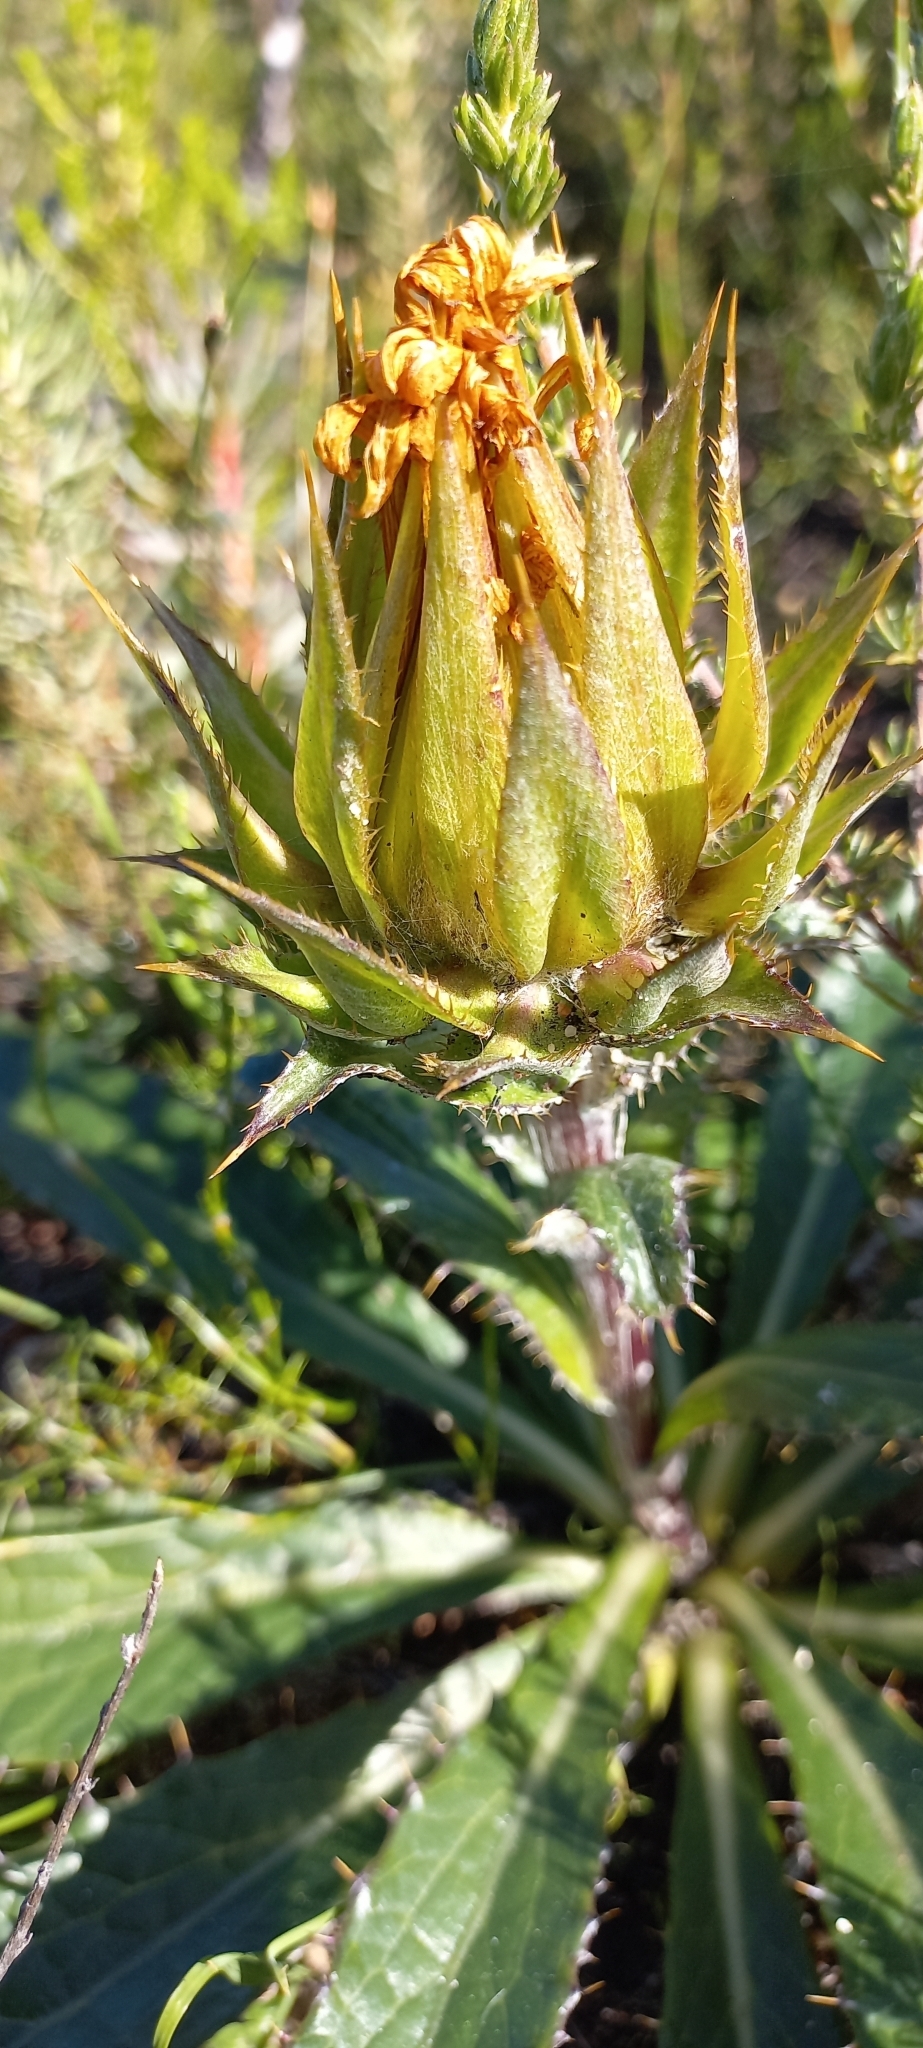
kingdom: Plantae
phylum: Tracheophyta
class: Magnoliopsida
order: Asterales
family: Asteraceae
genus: Berkheya
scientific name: Berkheya armata
